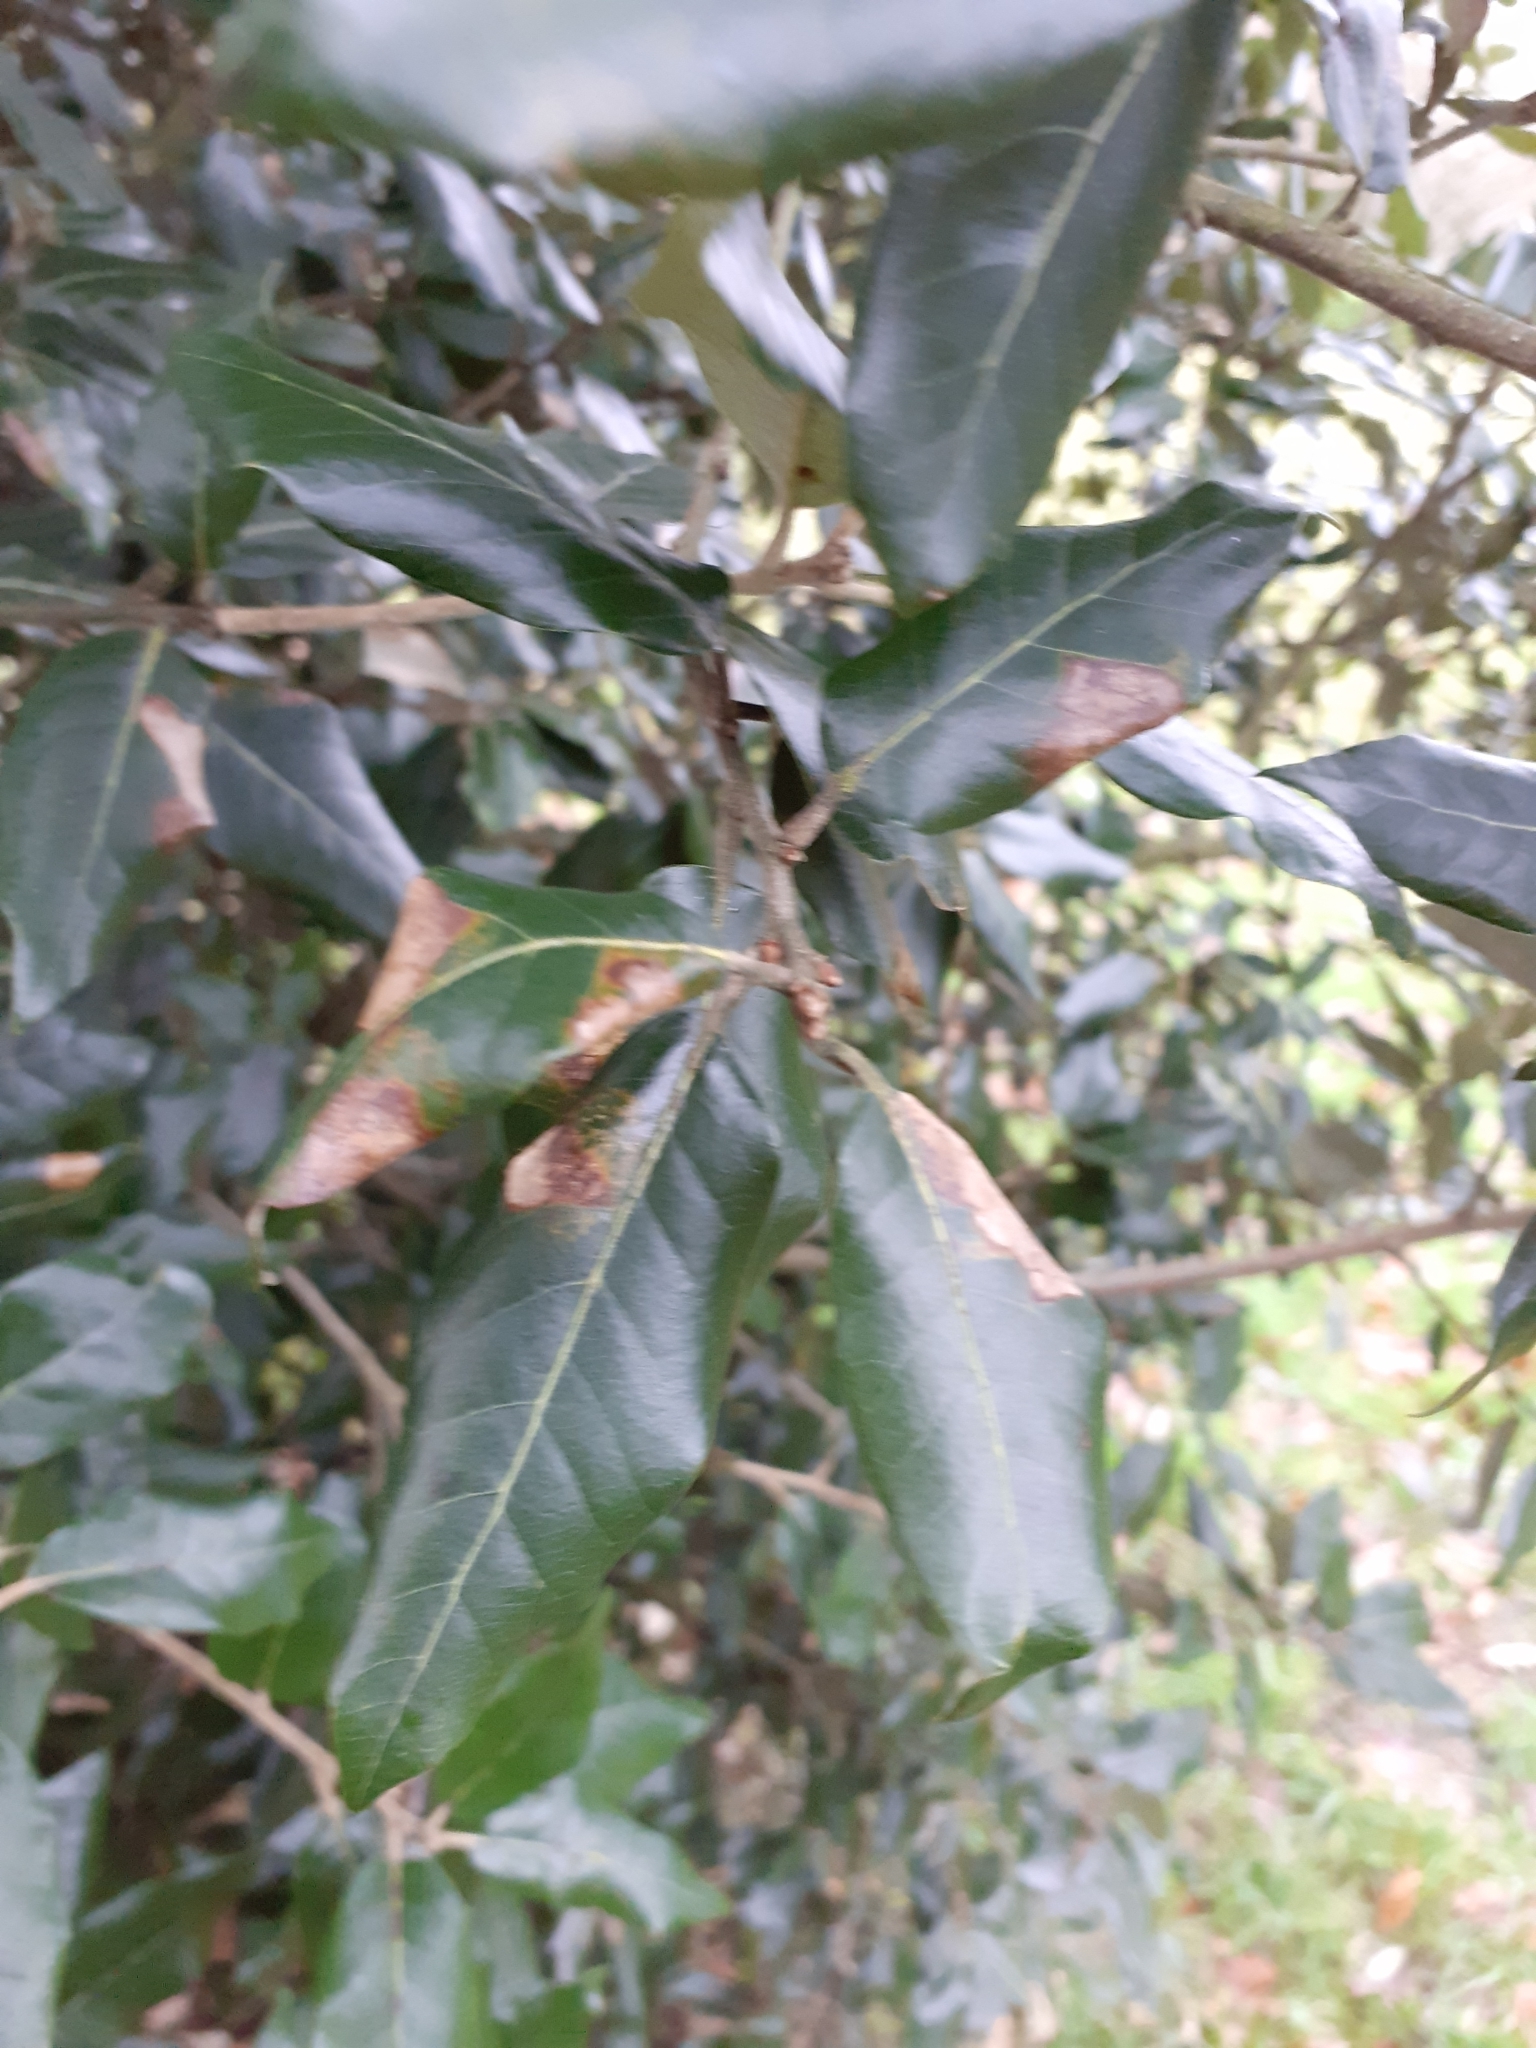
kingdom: Animalia
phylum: Arthropoda
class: Insecta
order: Lepidoptera
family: Gracillariidae
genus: Phyllonorycter
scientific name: Phyllonorycter messaniella
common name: Garden midget
